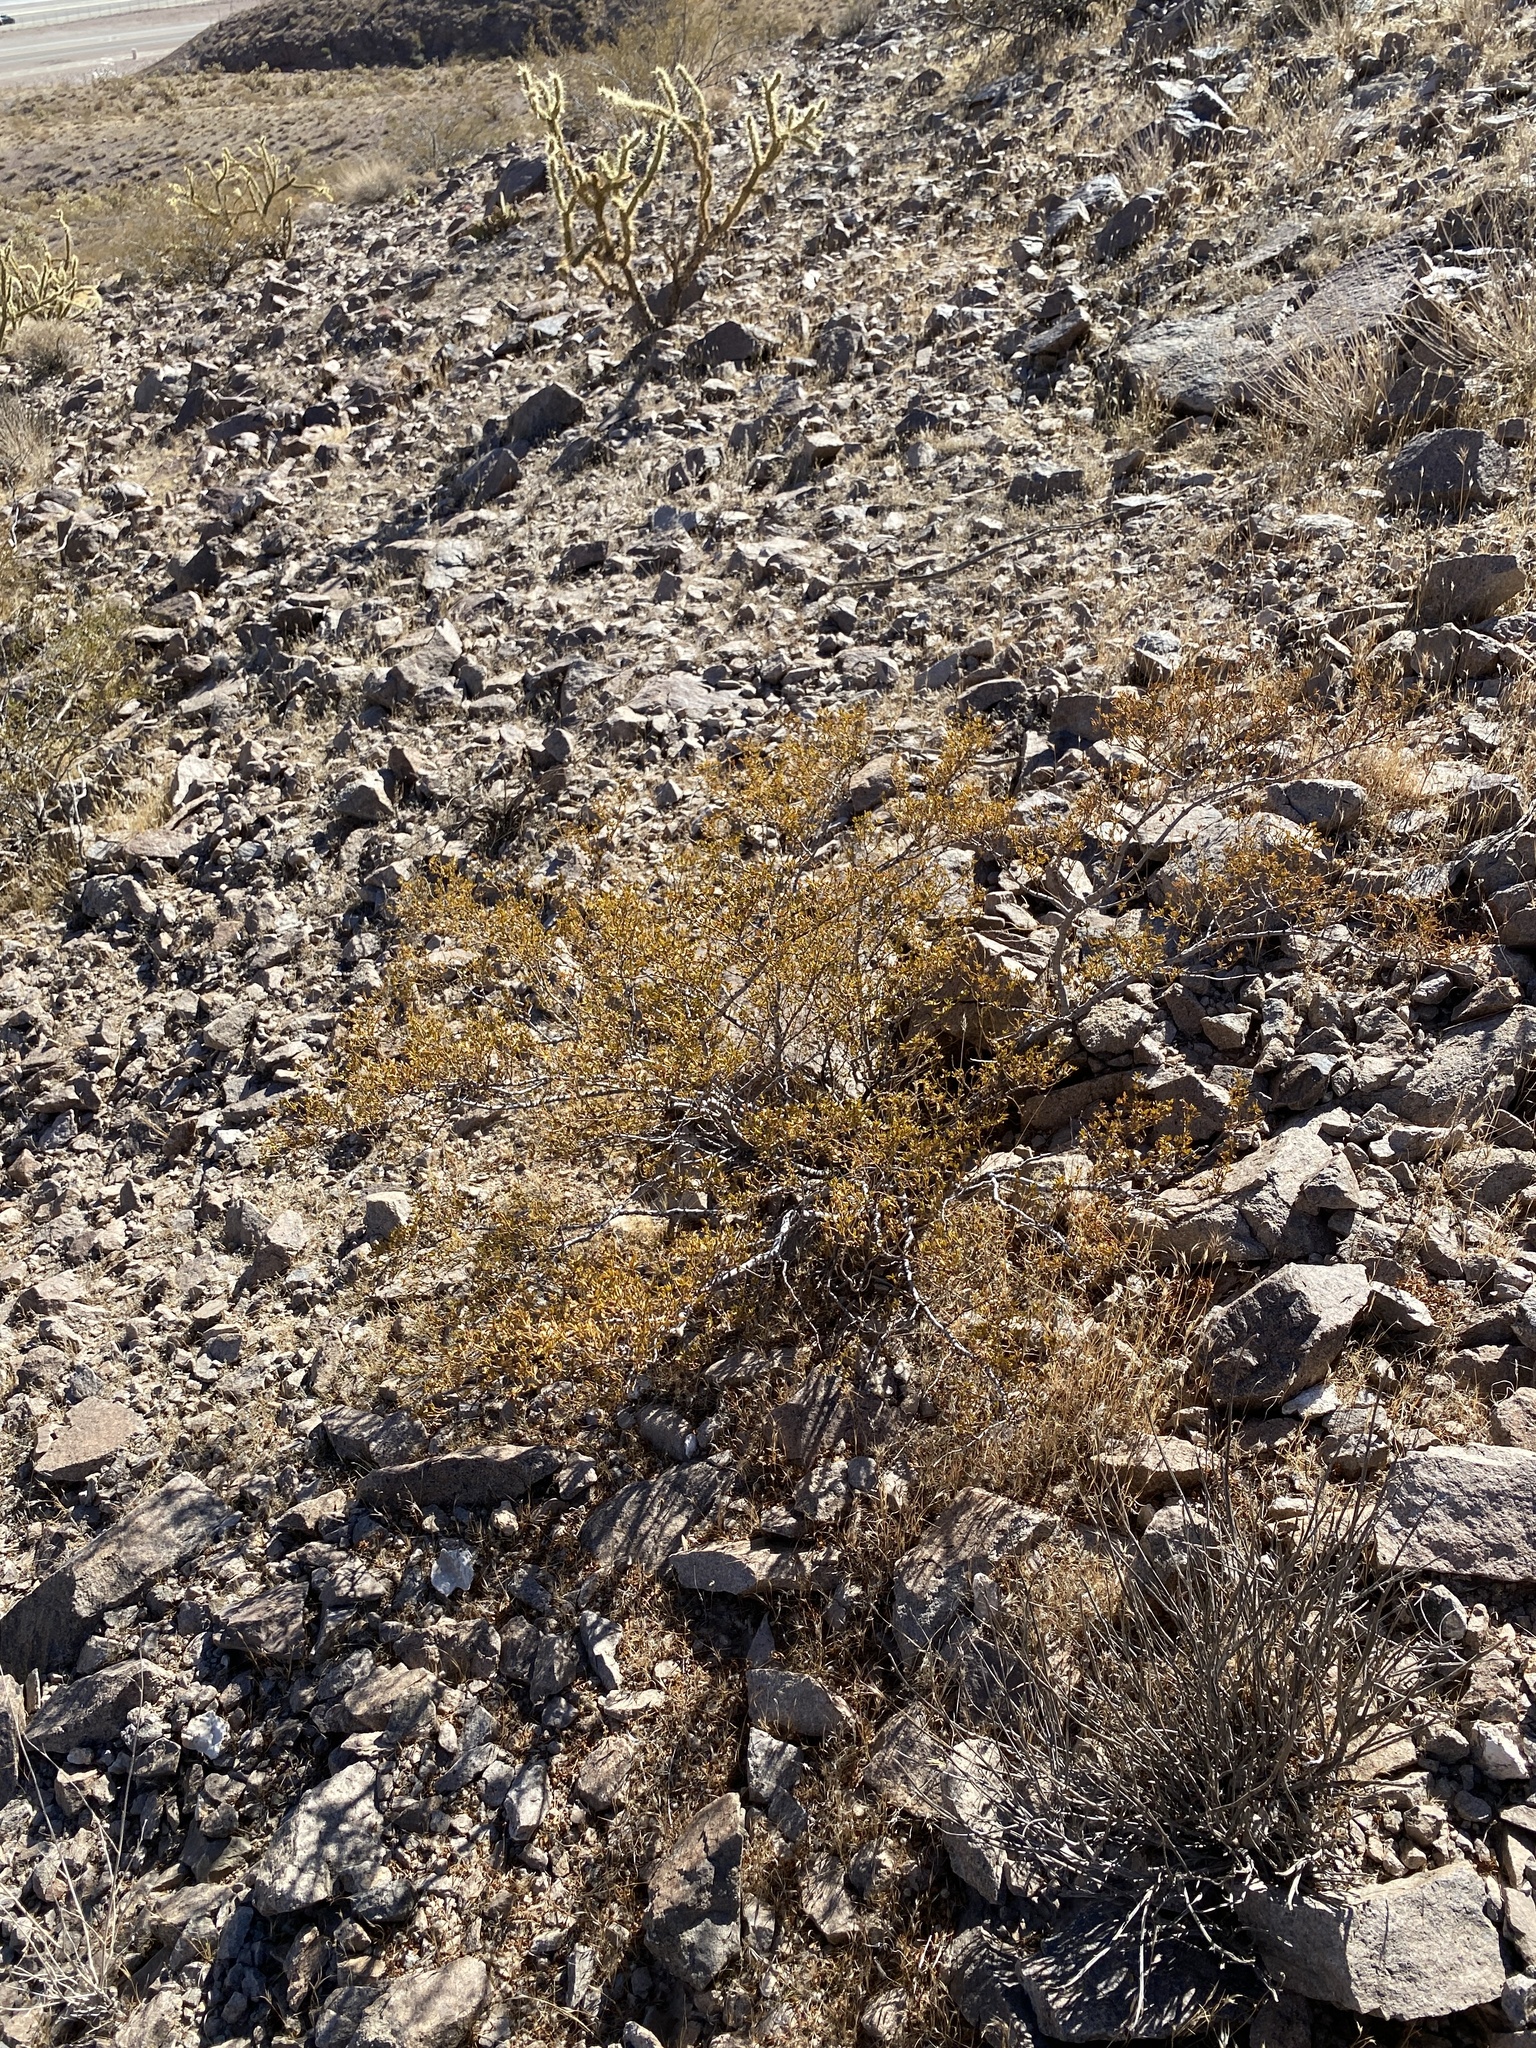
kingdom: Plantae
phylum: Tracheophyta
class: Magnoliopsida
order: Zygophyllales
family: Zygophyllaceae
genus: Larrea
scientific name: Larrea tridentata
